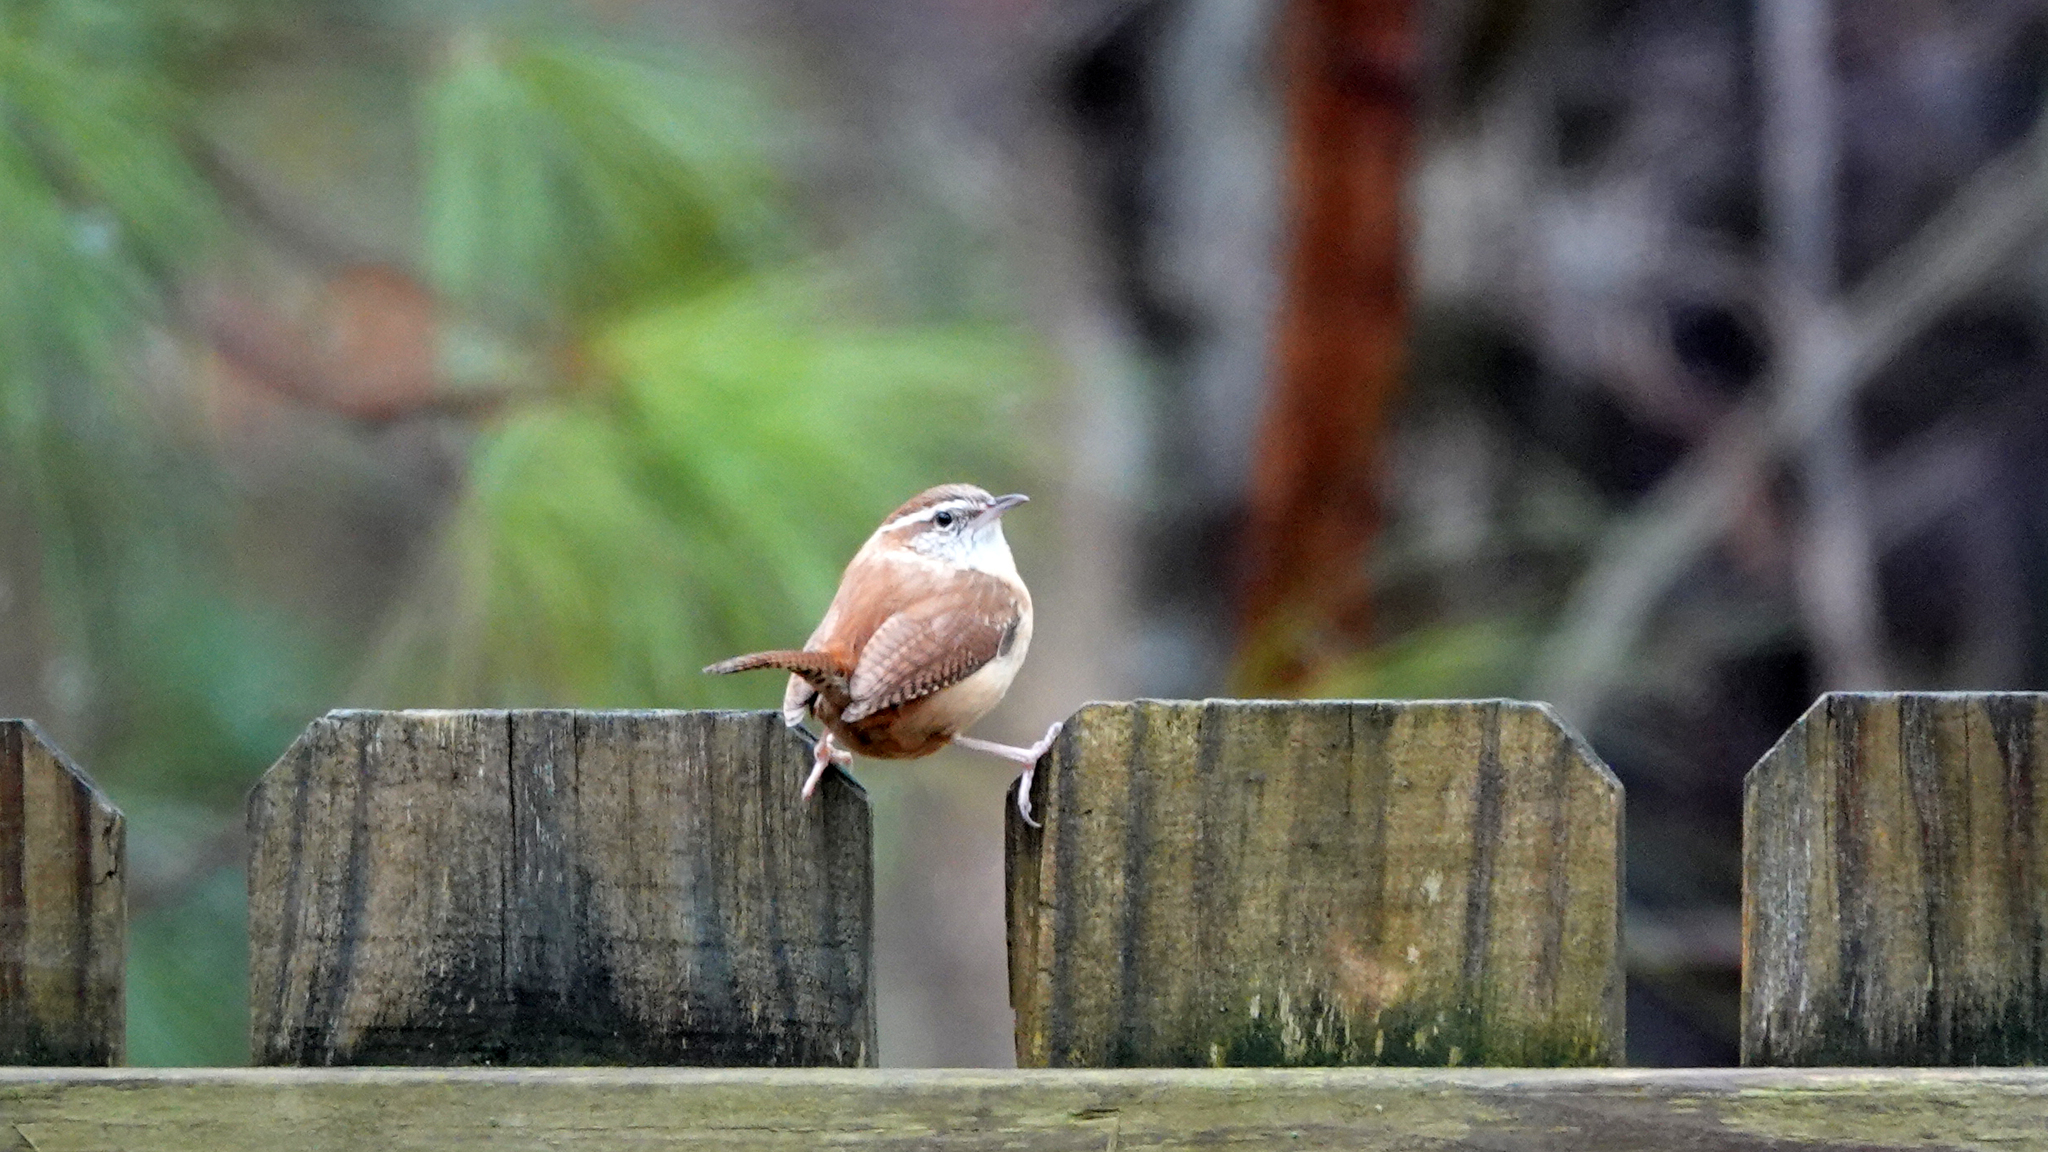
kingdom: Animalia
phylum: Chordata
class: Aves
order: Passeriformes
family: Troglodytidae
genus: Thryothorus
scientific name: Thryothorus ludovicianus
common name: Carolina wren
